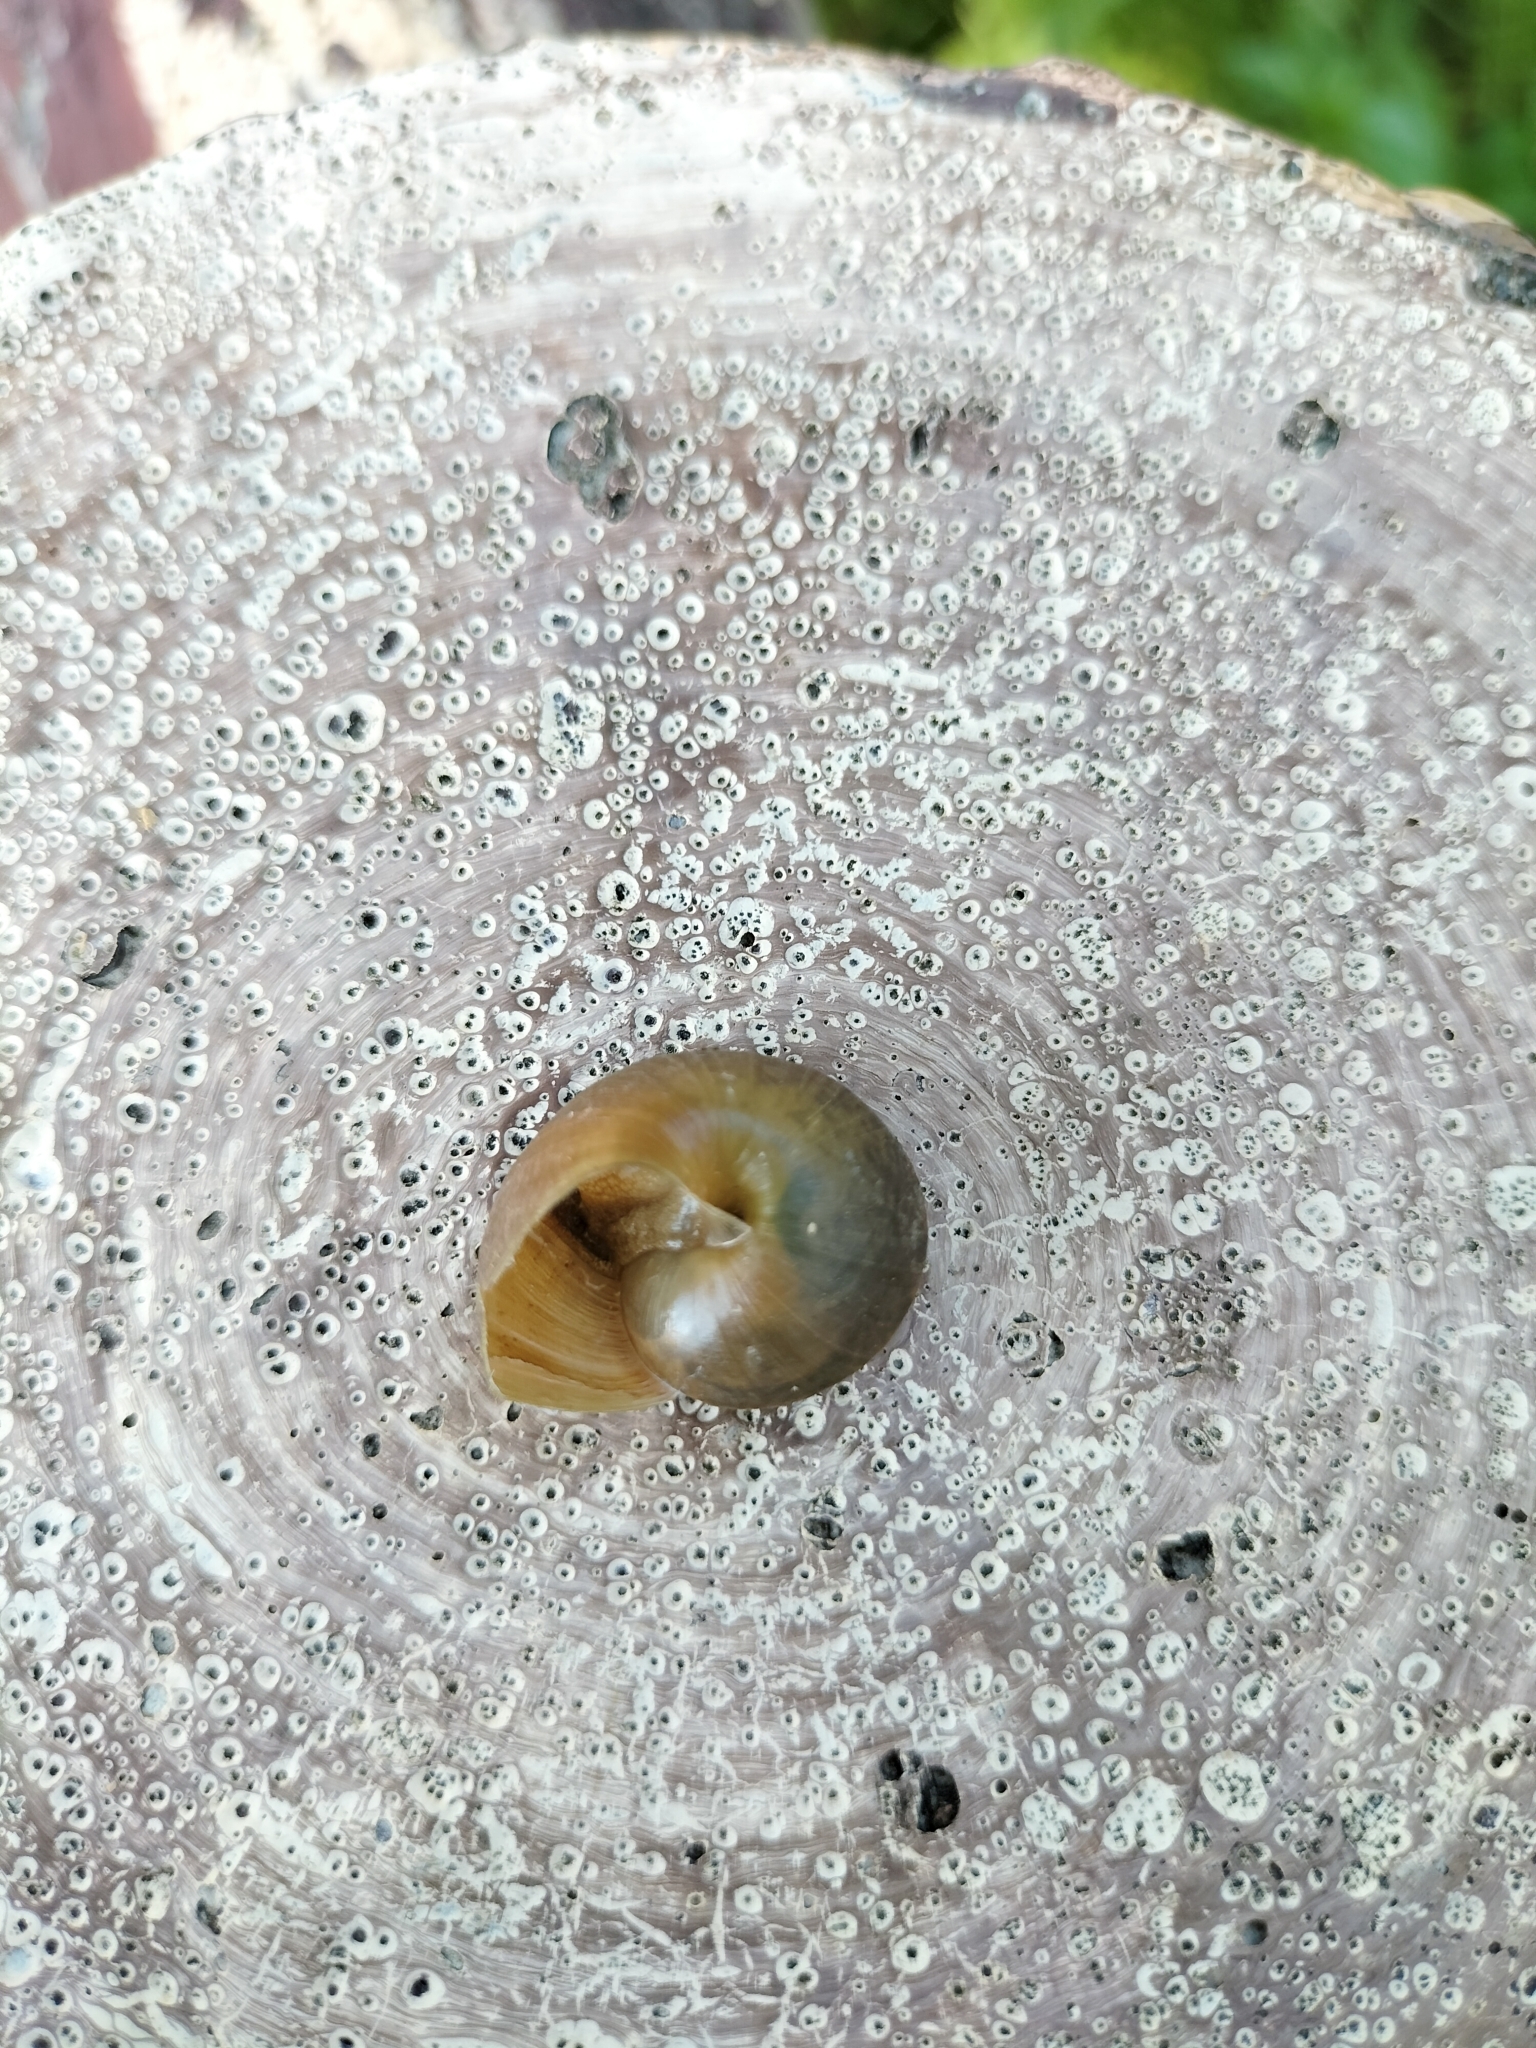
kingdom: Animalia
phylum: Mollusca
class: Gastropoda
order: Stylommatophora
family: Camaenidae
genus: Nesiohelix
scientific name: Nesiohelix swinhoei
